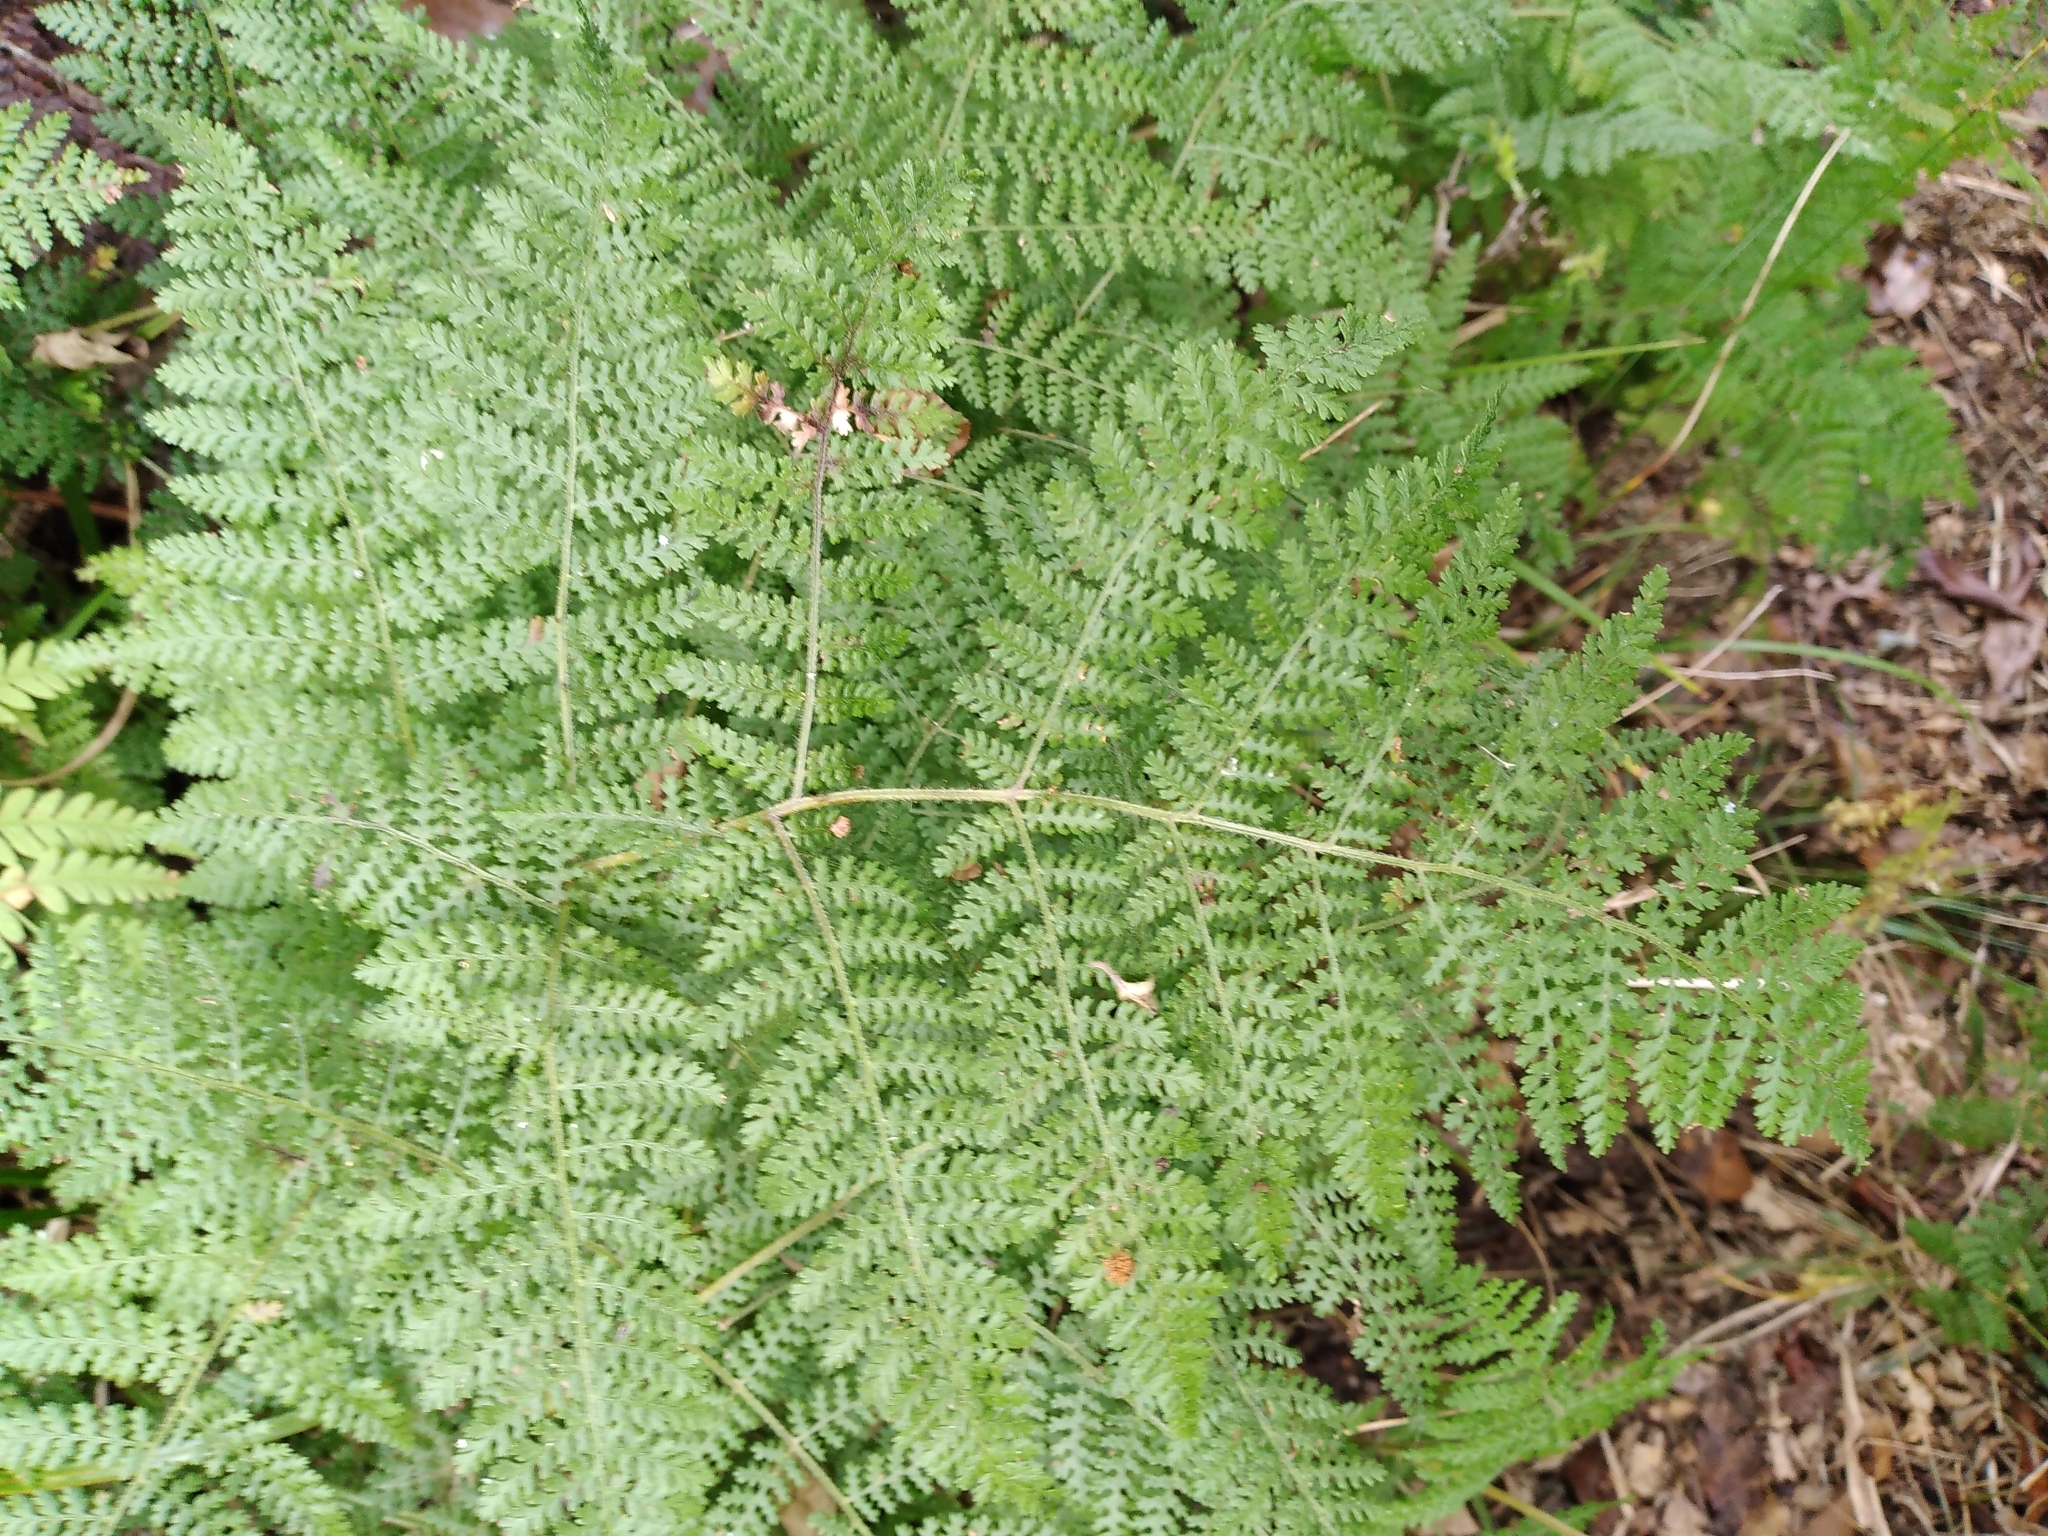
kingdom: Plantae
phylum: Tracheophyta
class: Polypodiopsida
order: Polypodiales
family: Dennstaedtiaceae
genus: Hypolepis
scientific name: Hypolepis millefolium
